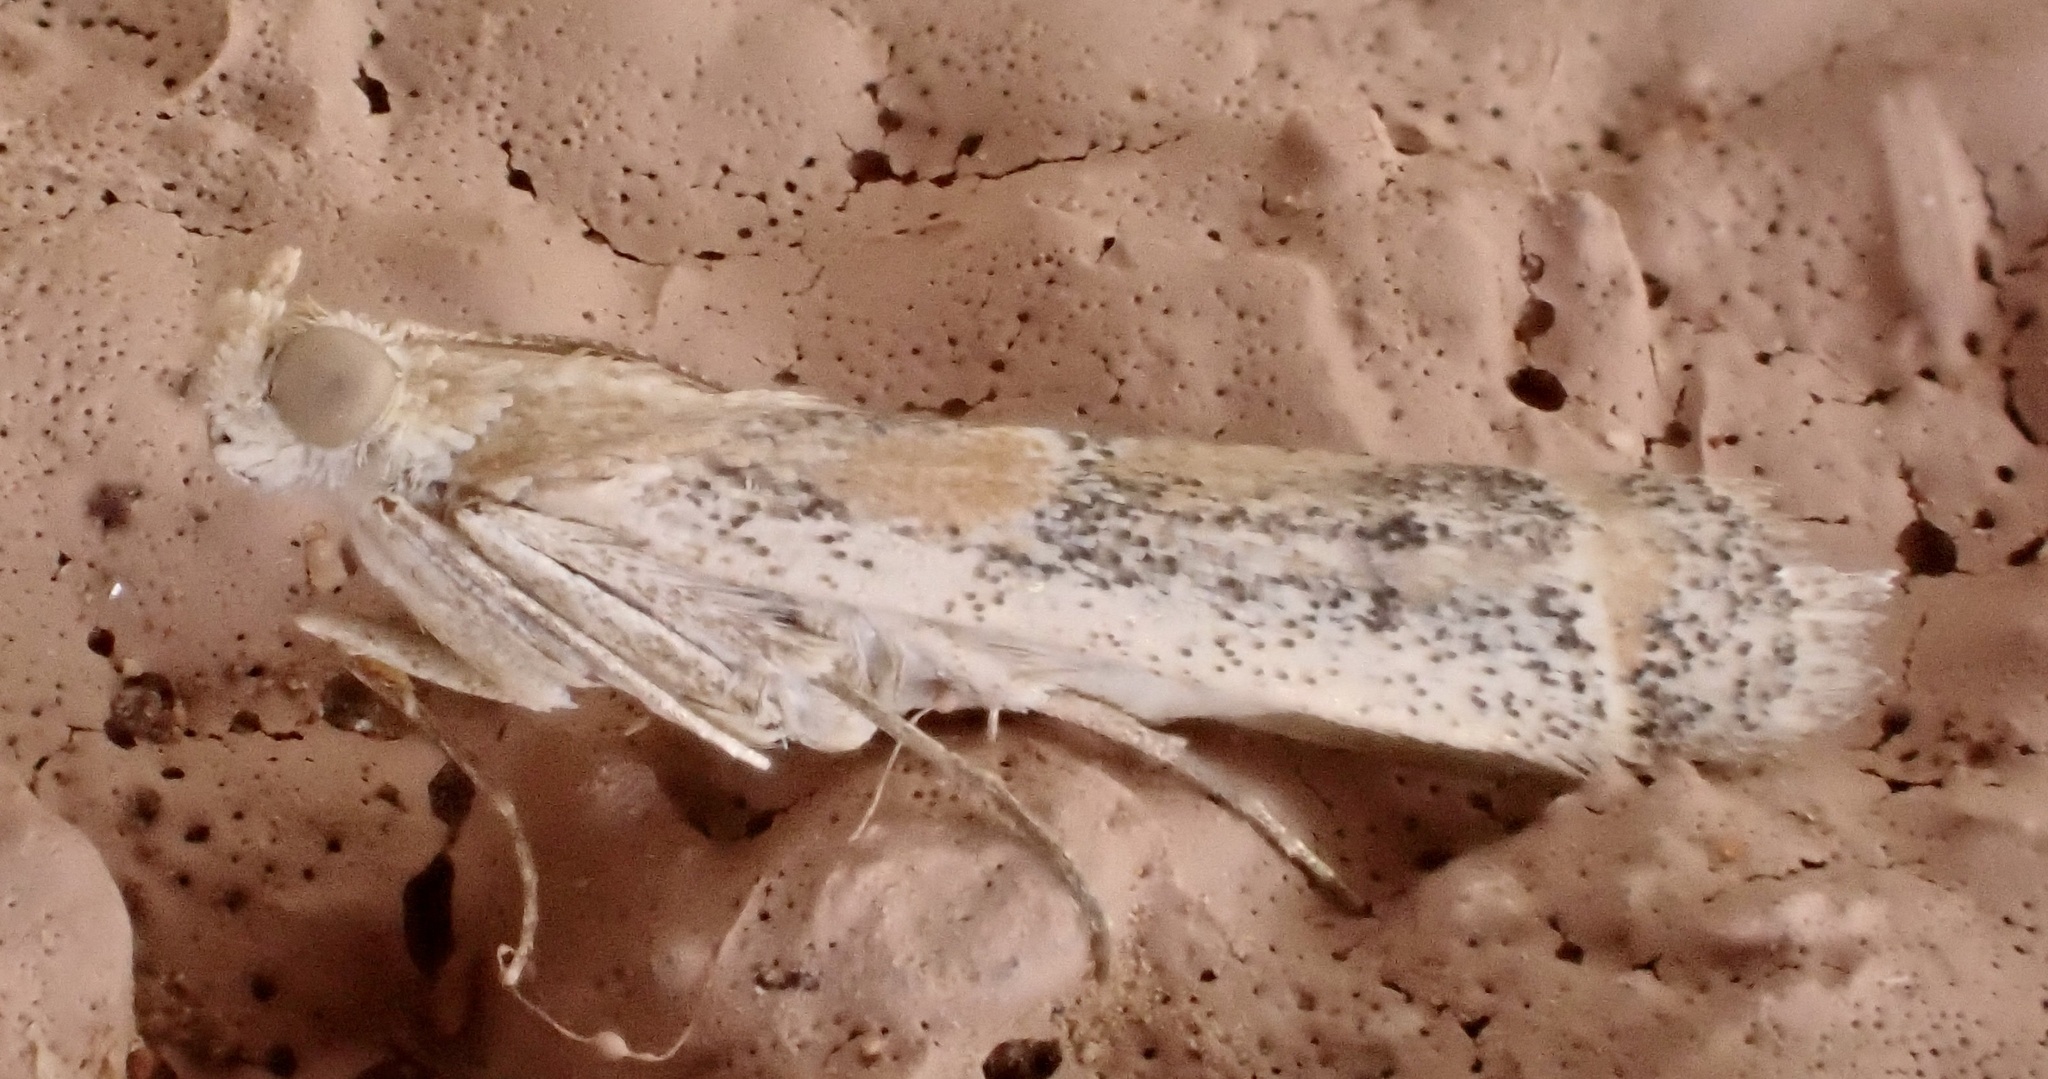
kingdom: Animalia
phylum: Arthropoda
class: Insecta
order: Lepidoptera
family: Pyralidae
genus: Ancylosis
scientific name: Ancylosis samaritanella
